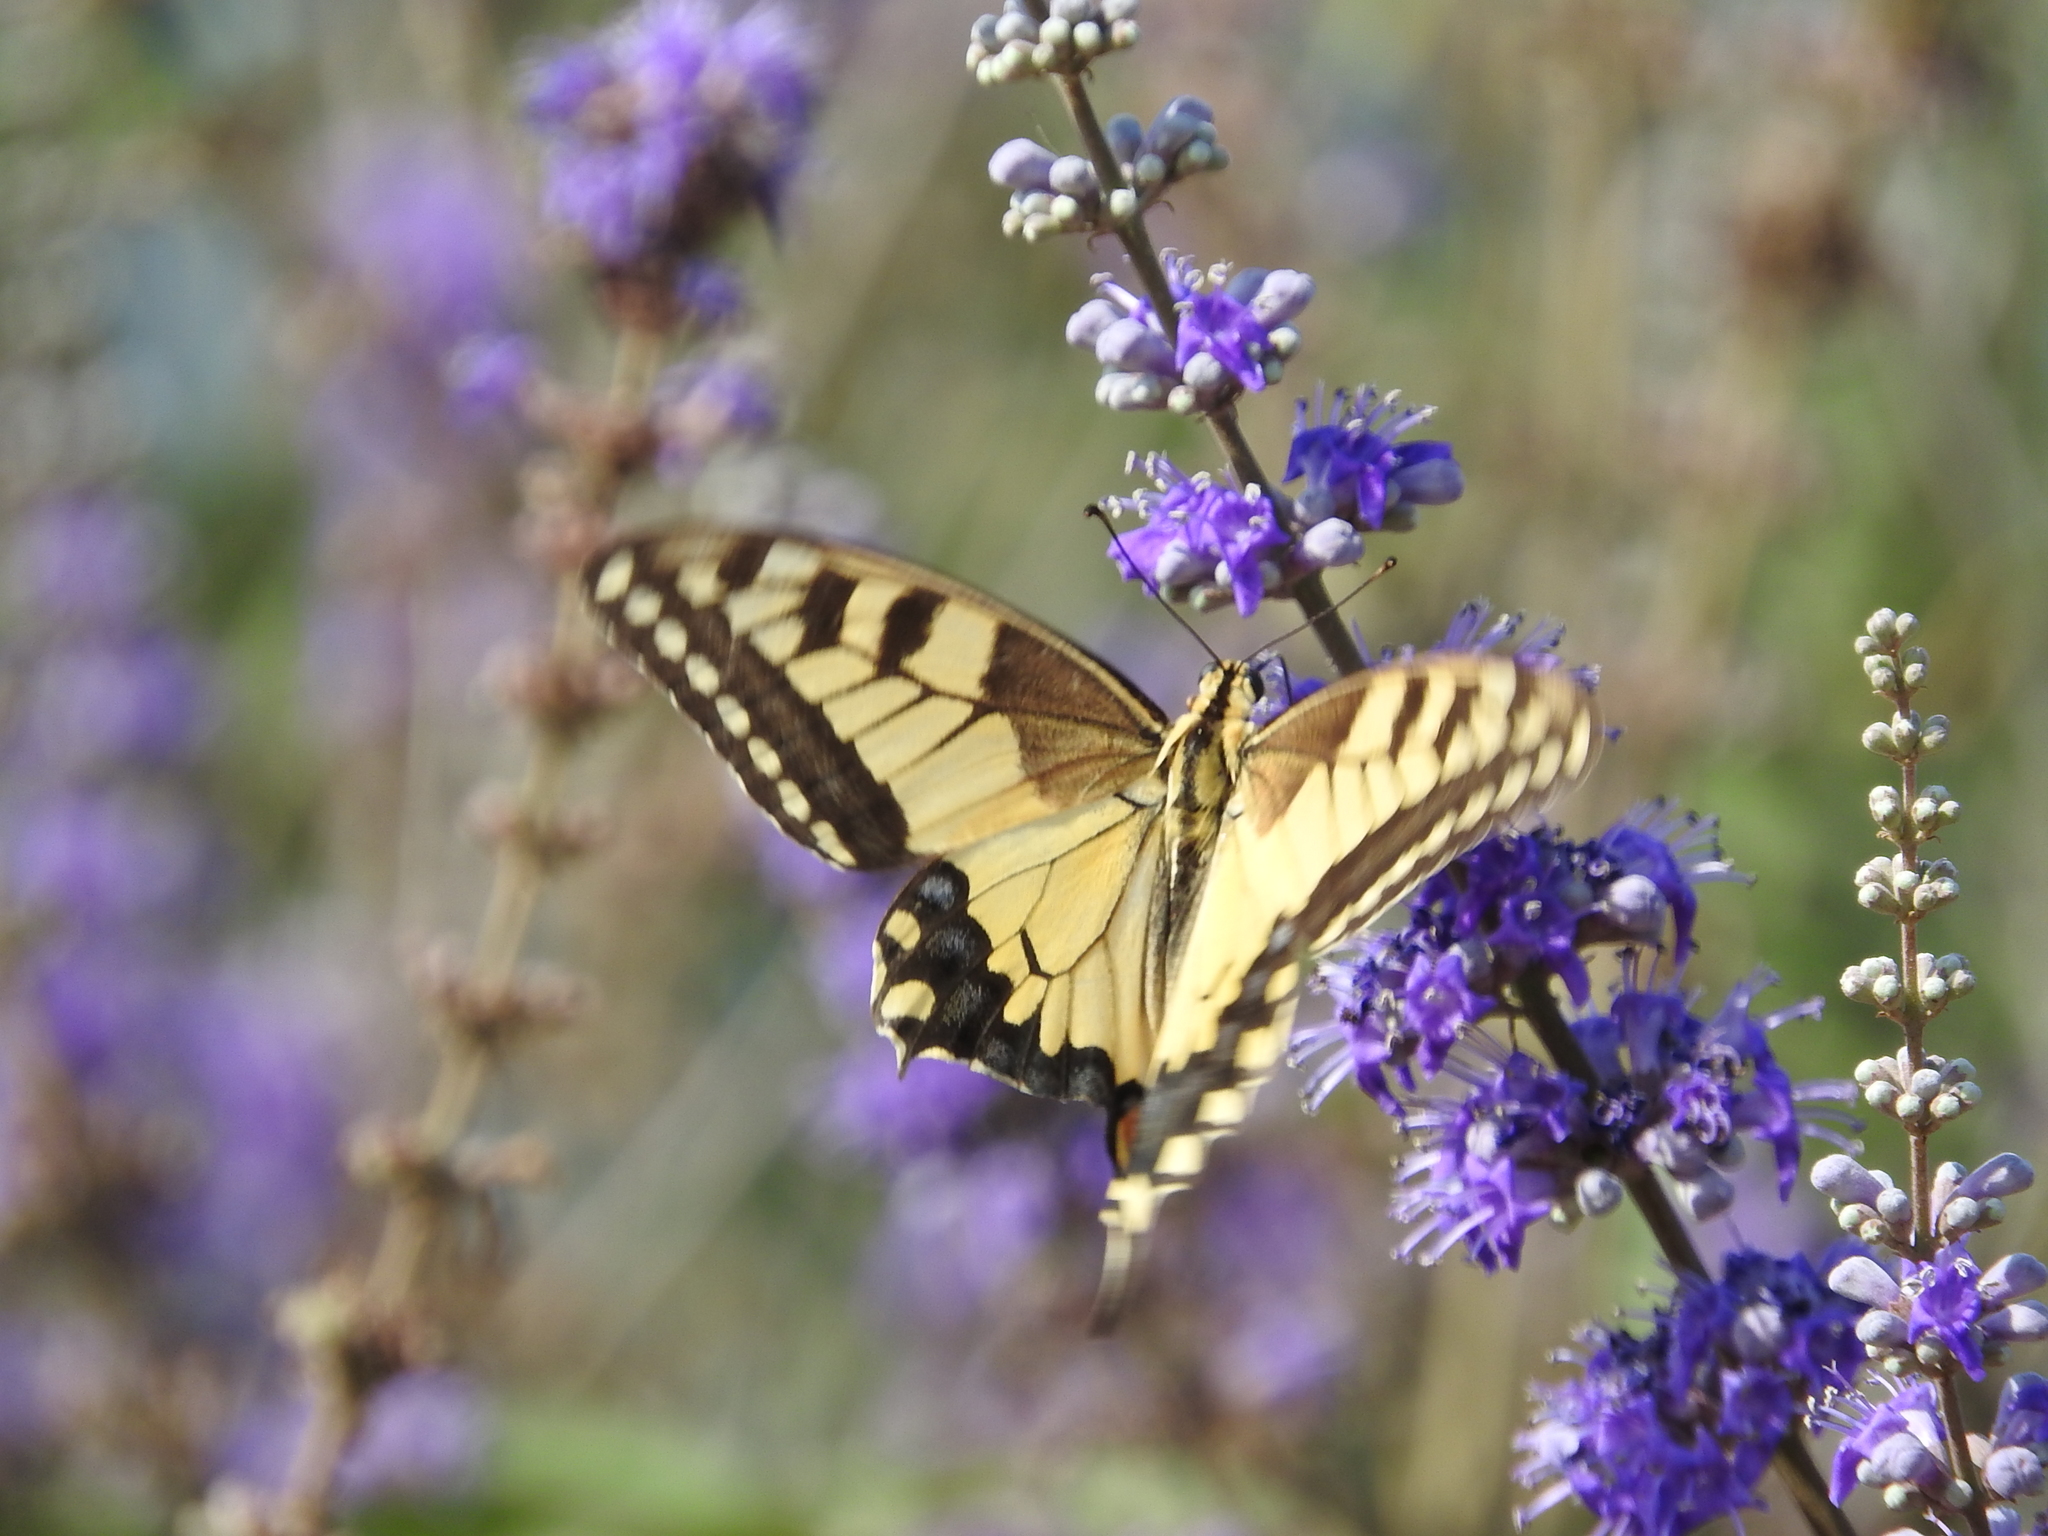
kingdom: Animalia
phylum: Arthropoda
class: Insecta
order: Lepidoptera
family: Papilionidae
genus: Papilio
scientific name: Papilio machaon
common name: Swallowtail
